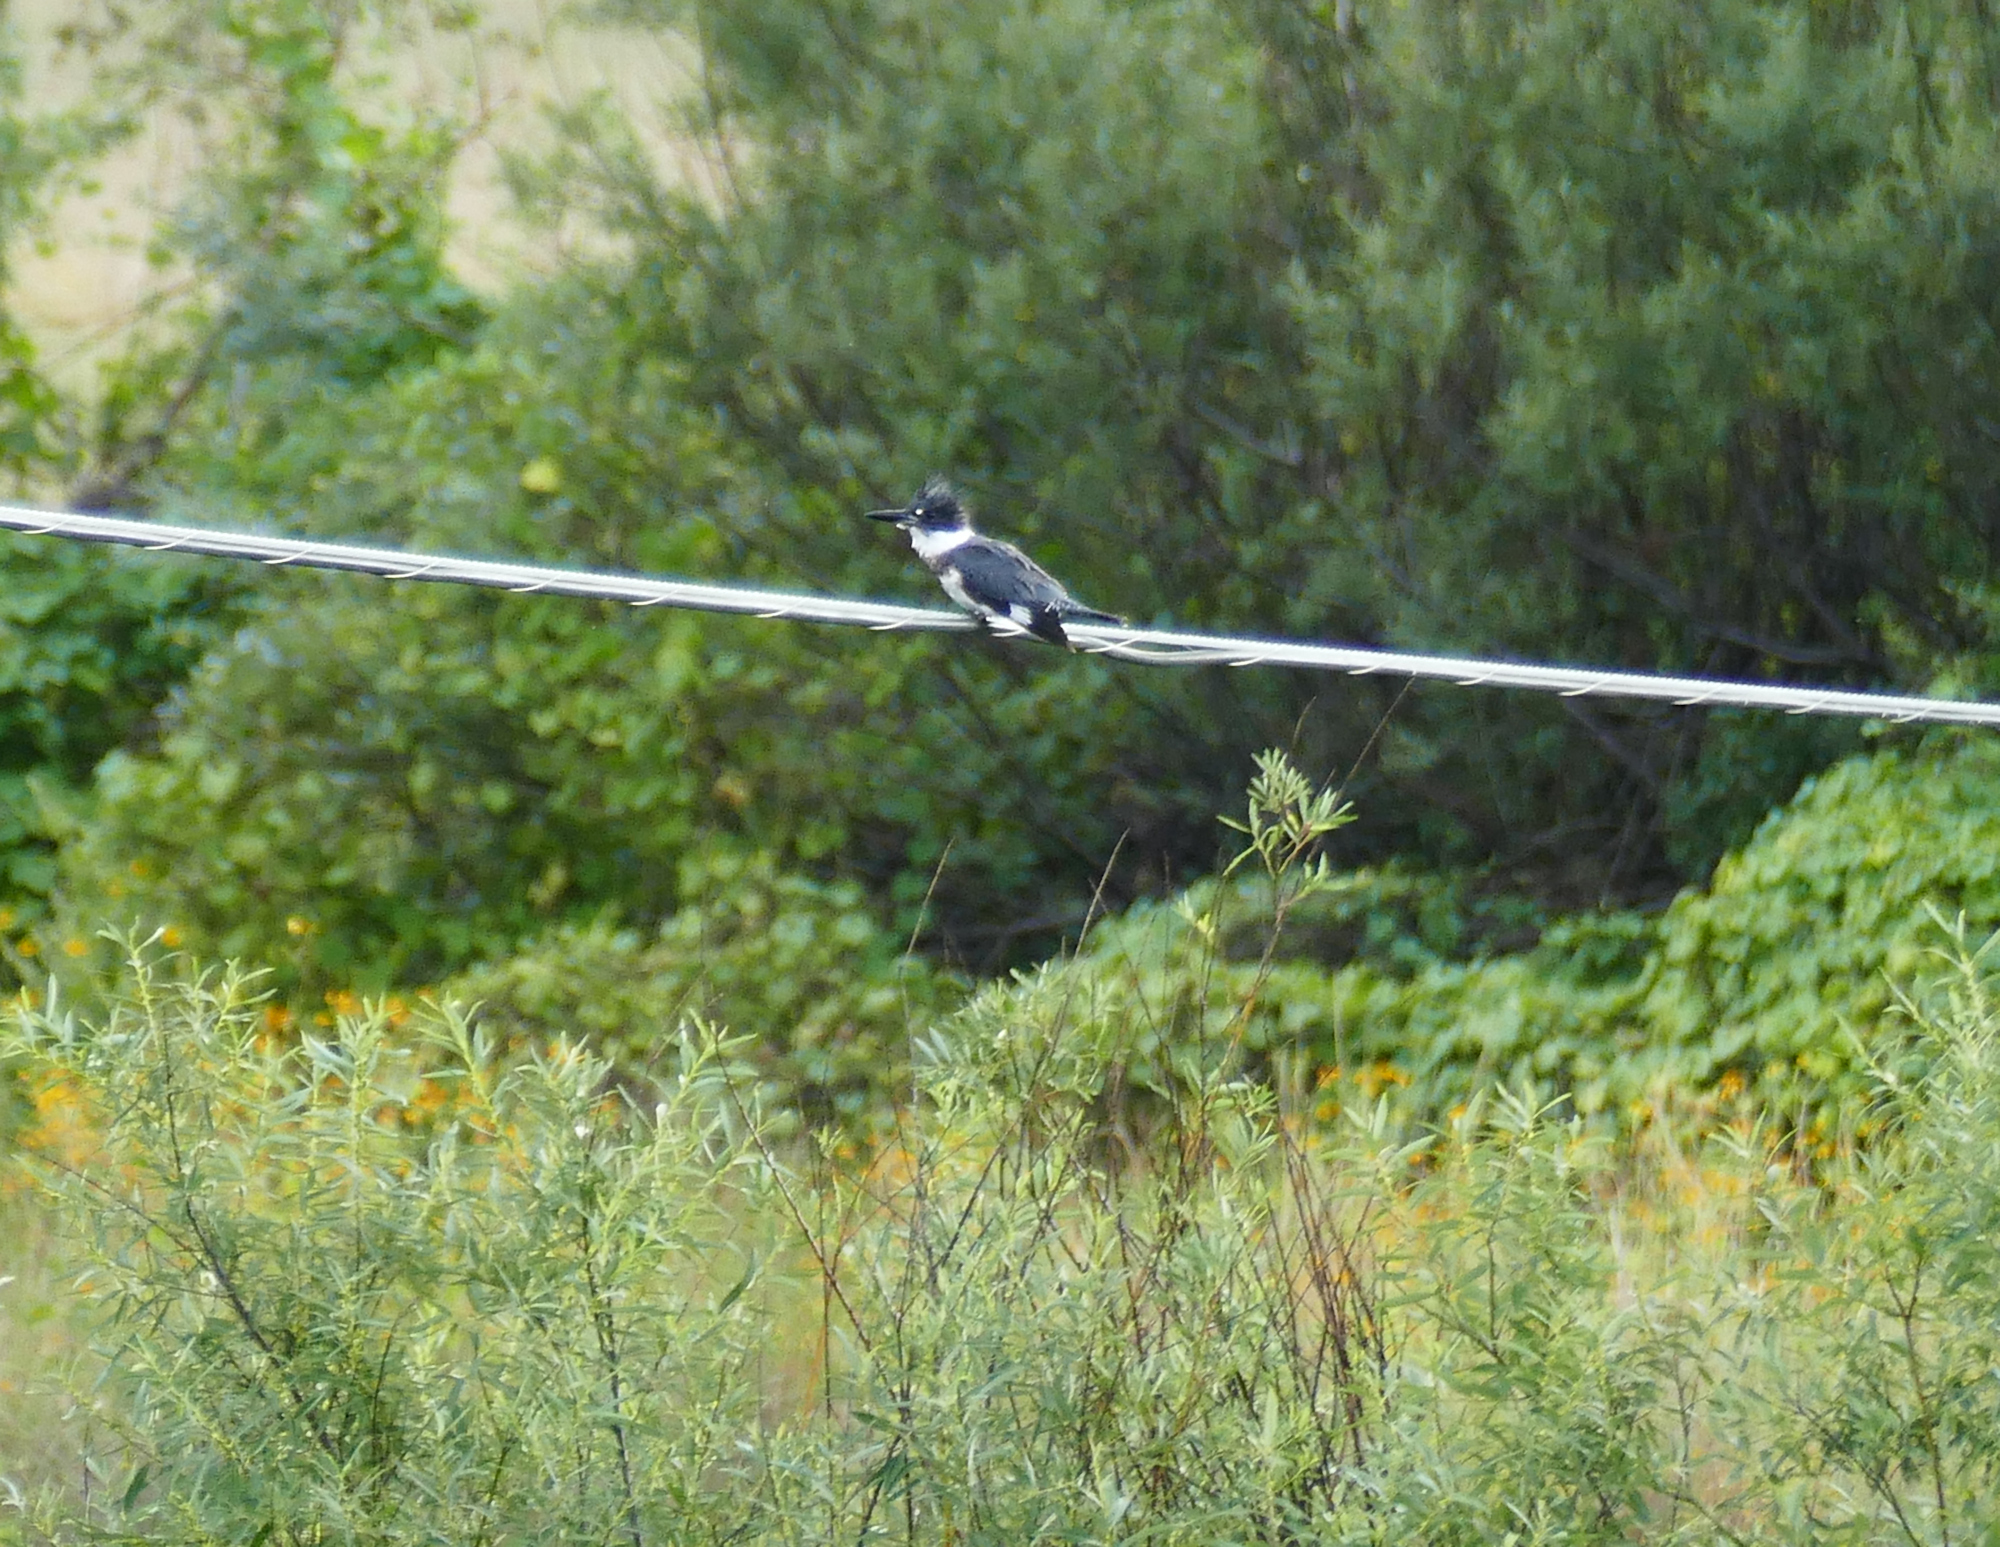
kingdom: Animalia
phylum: Chordata
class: Aves
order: Coraciiformes
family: Alcedinidae
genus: Megaceryle
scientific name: Megaceryle alcyon
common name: Belted kingfisher
